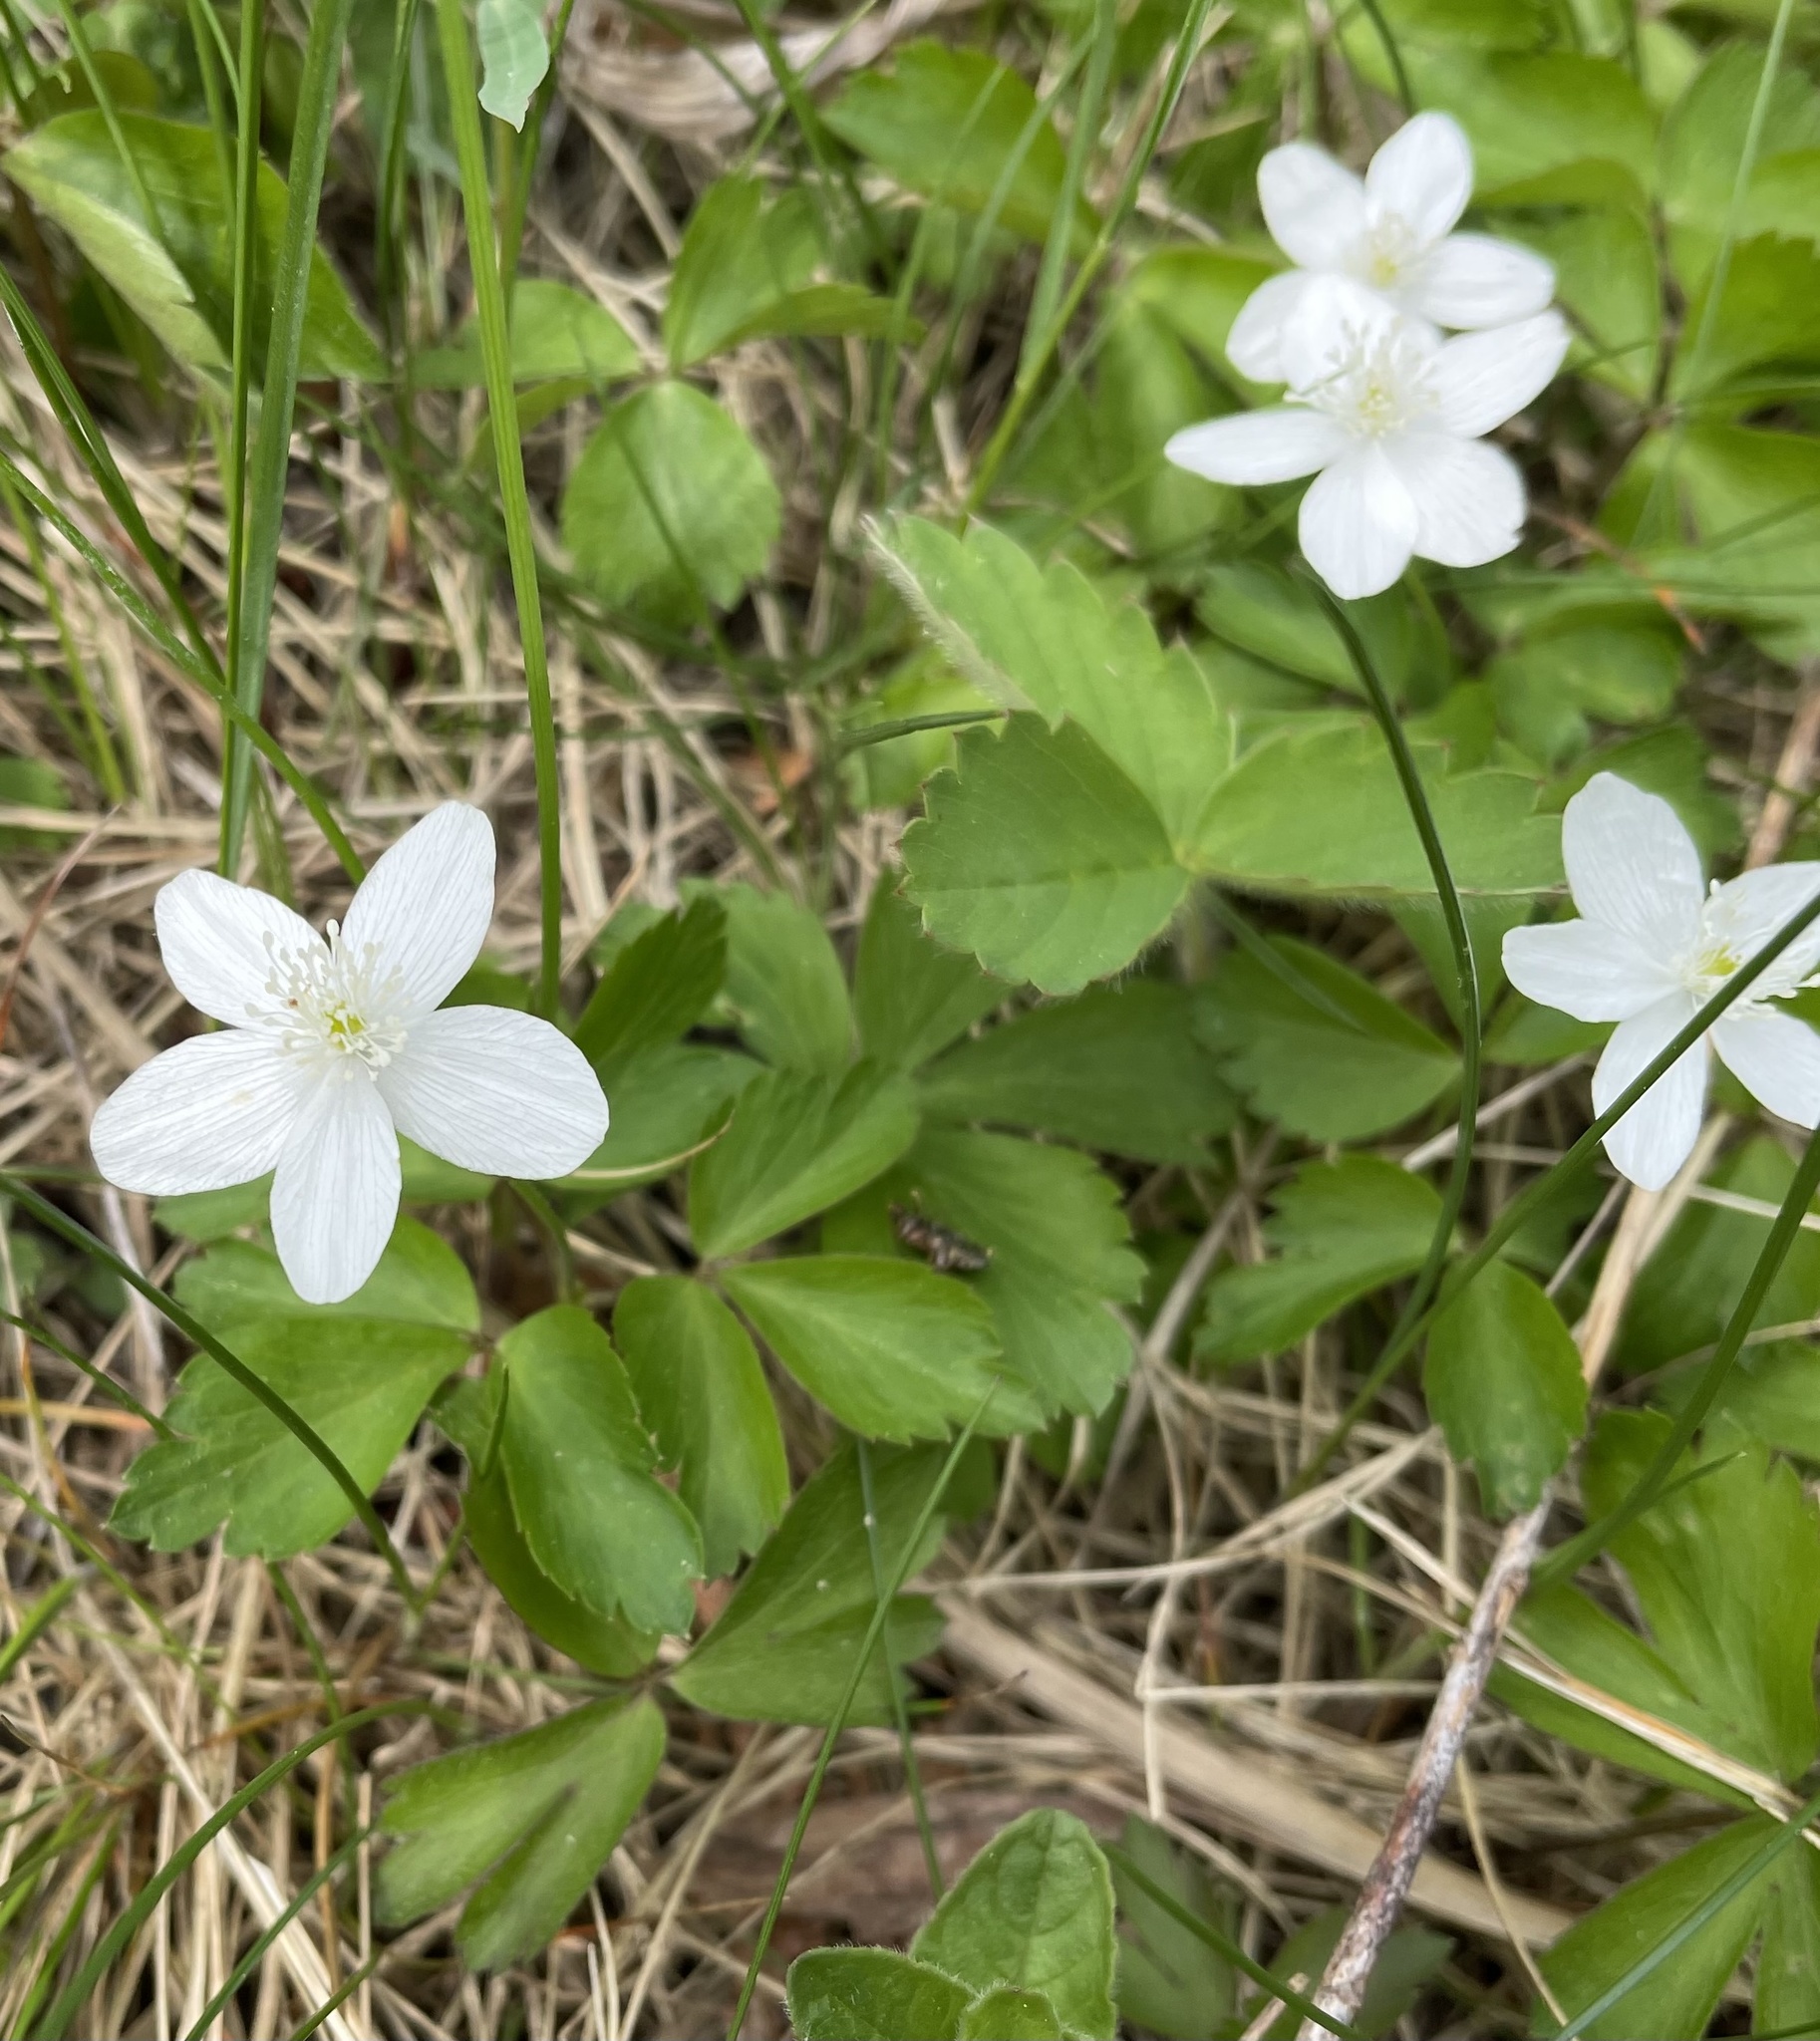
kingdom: Plantae
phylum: Tracheophyta
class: Magnoliopsida
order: Ranunculales
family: Ranunculaceae
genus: Anemone
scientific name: Anemone quinquefolia
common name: Wood anemone
